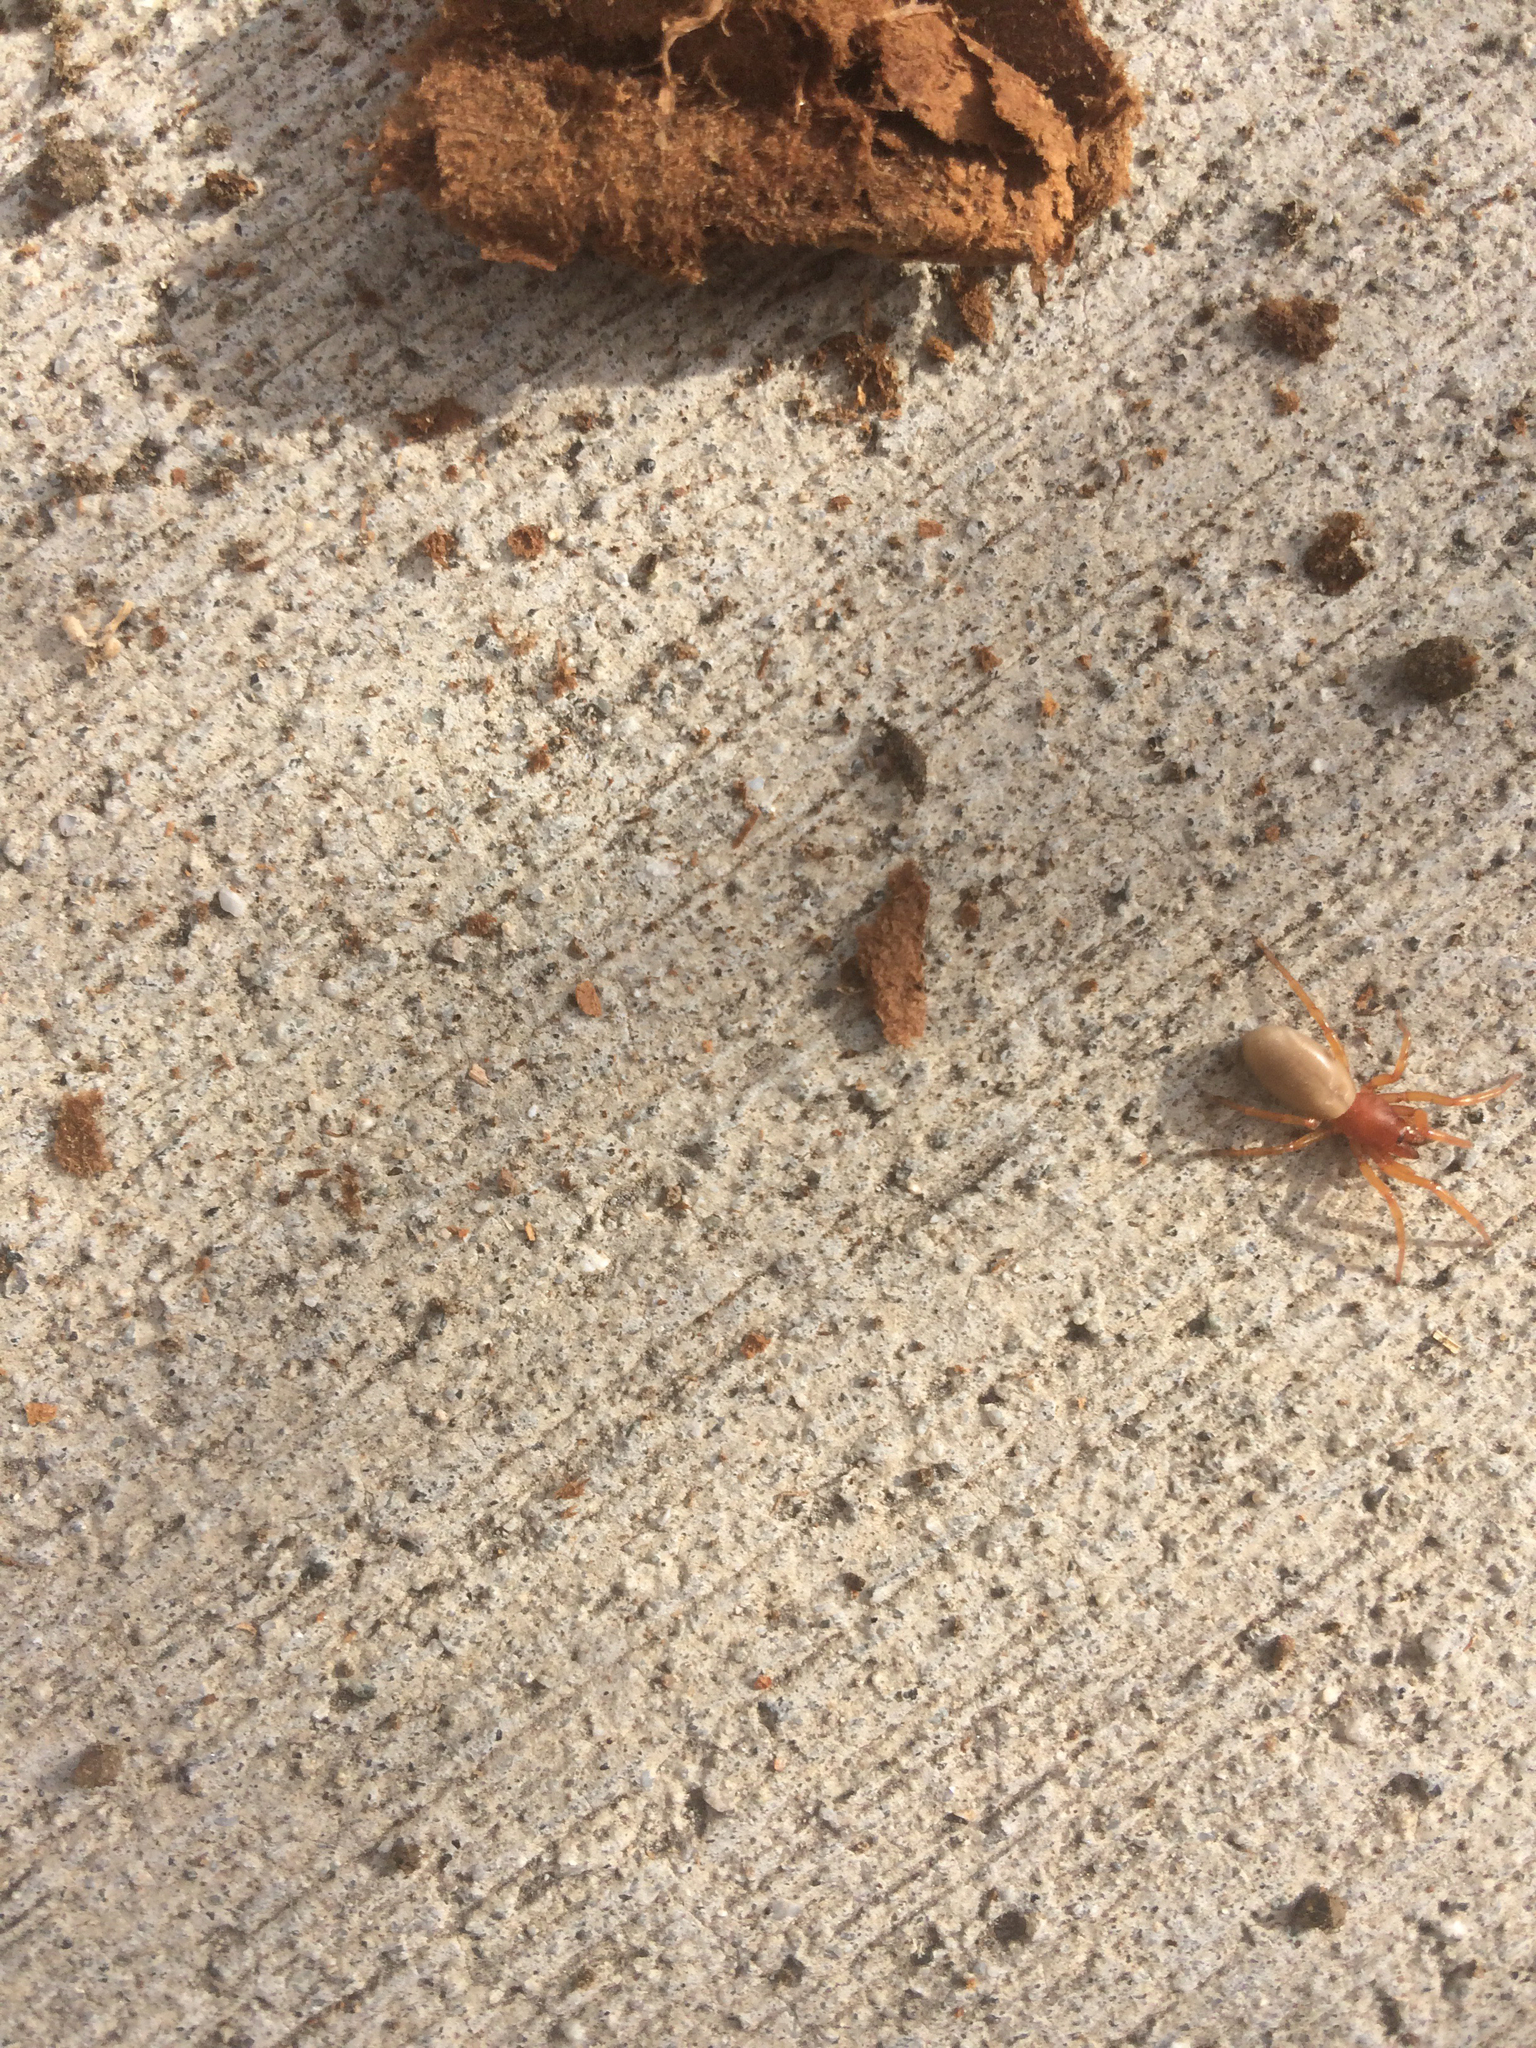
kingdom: Animalia
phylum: Arthropoda
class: Arachnida
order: Araneae
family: Dysderidae
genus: Dysdera
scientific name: Dysdera crocata
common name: Woodlouse spider
